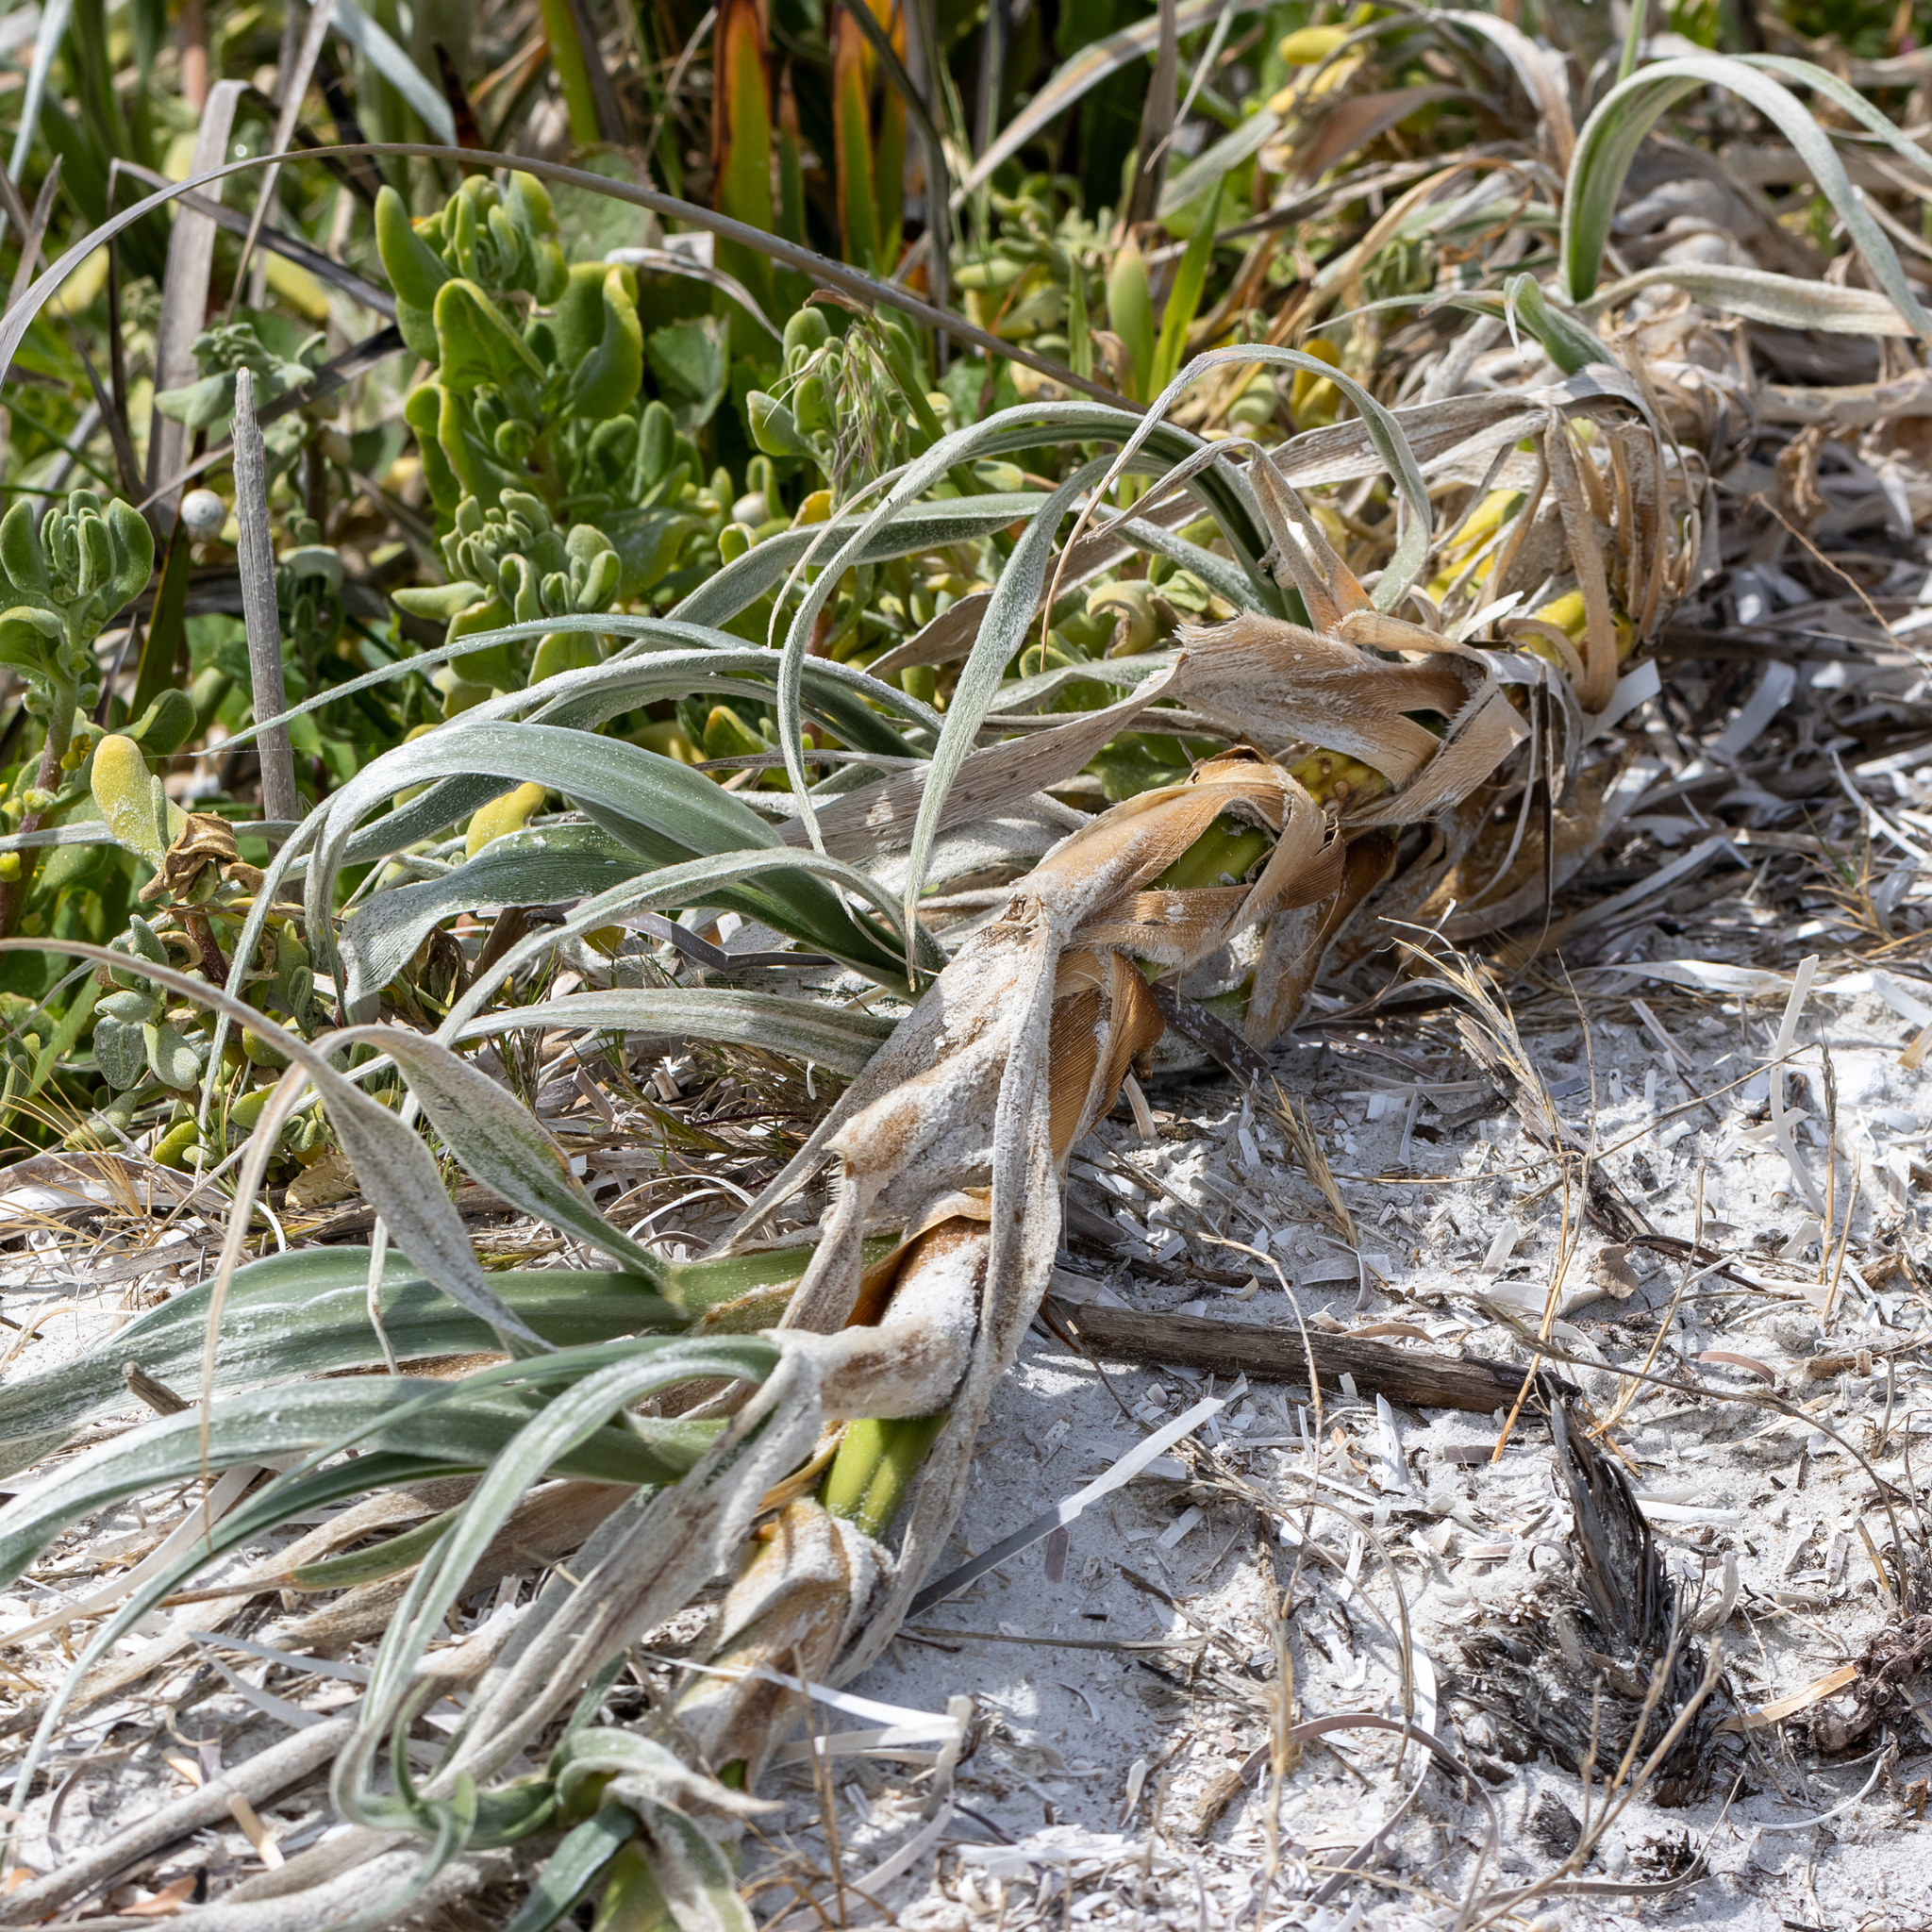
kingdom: Plantae
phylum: Tracheophyta
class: Liliopsida
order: Poales
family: Poaceae
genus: Spinifex
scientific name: Spinifex hirsutus
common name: Hairy spinifex
